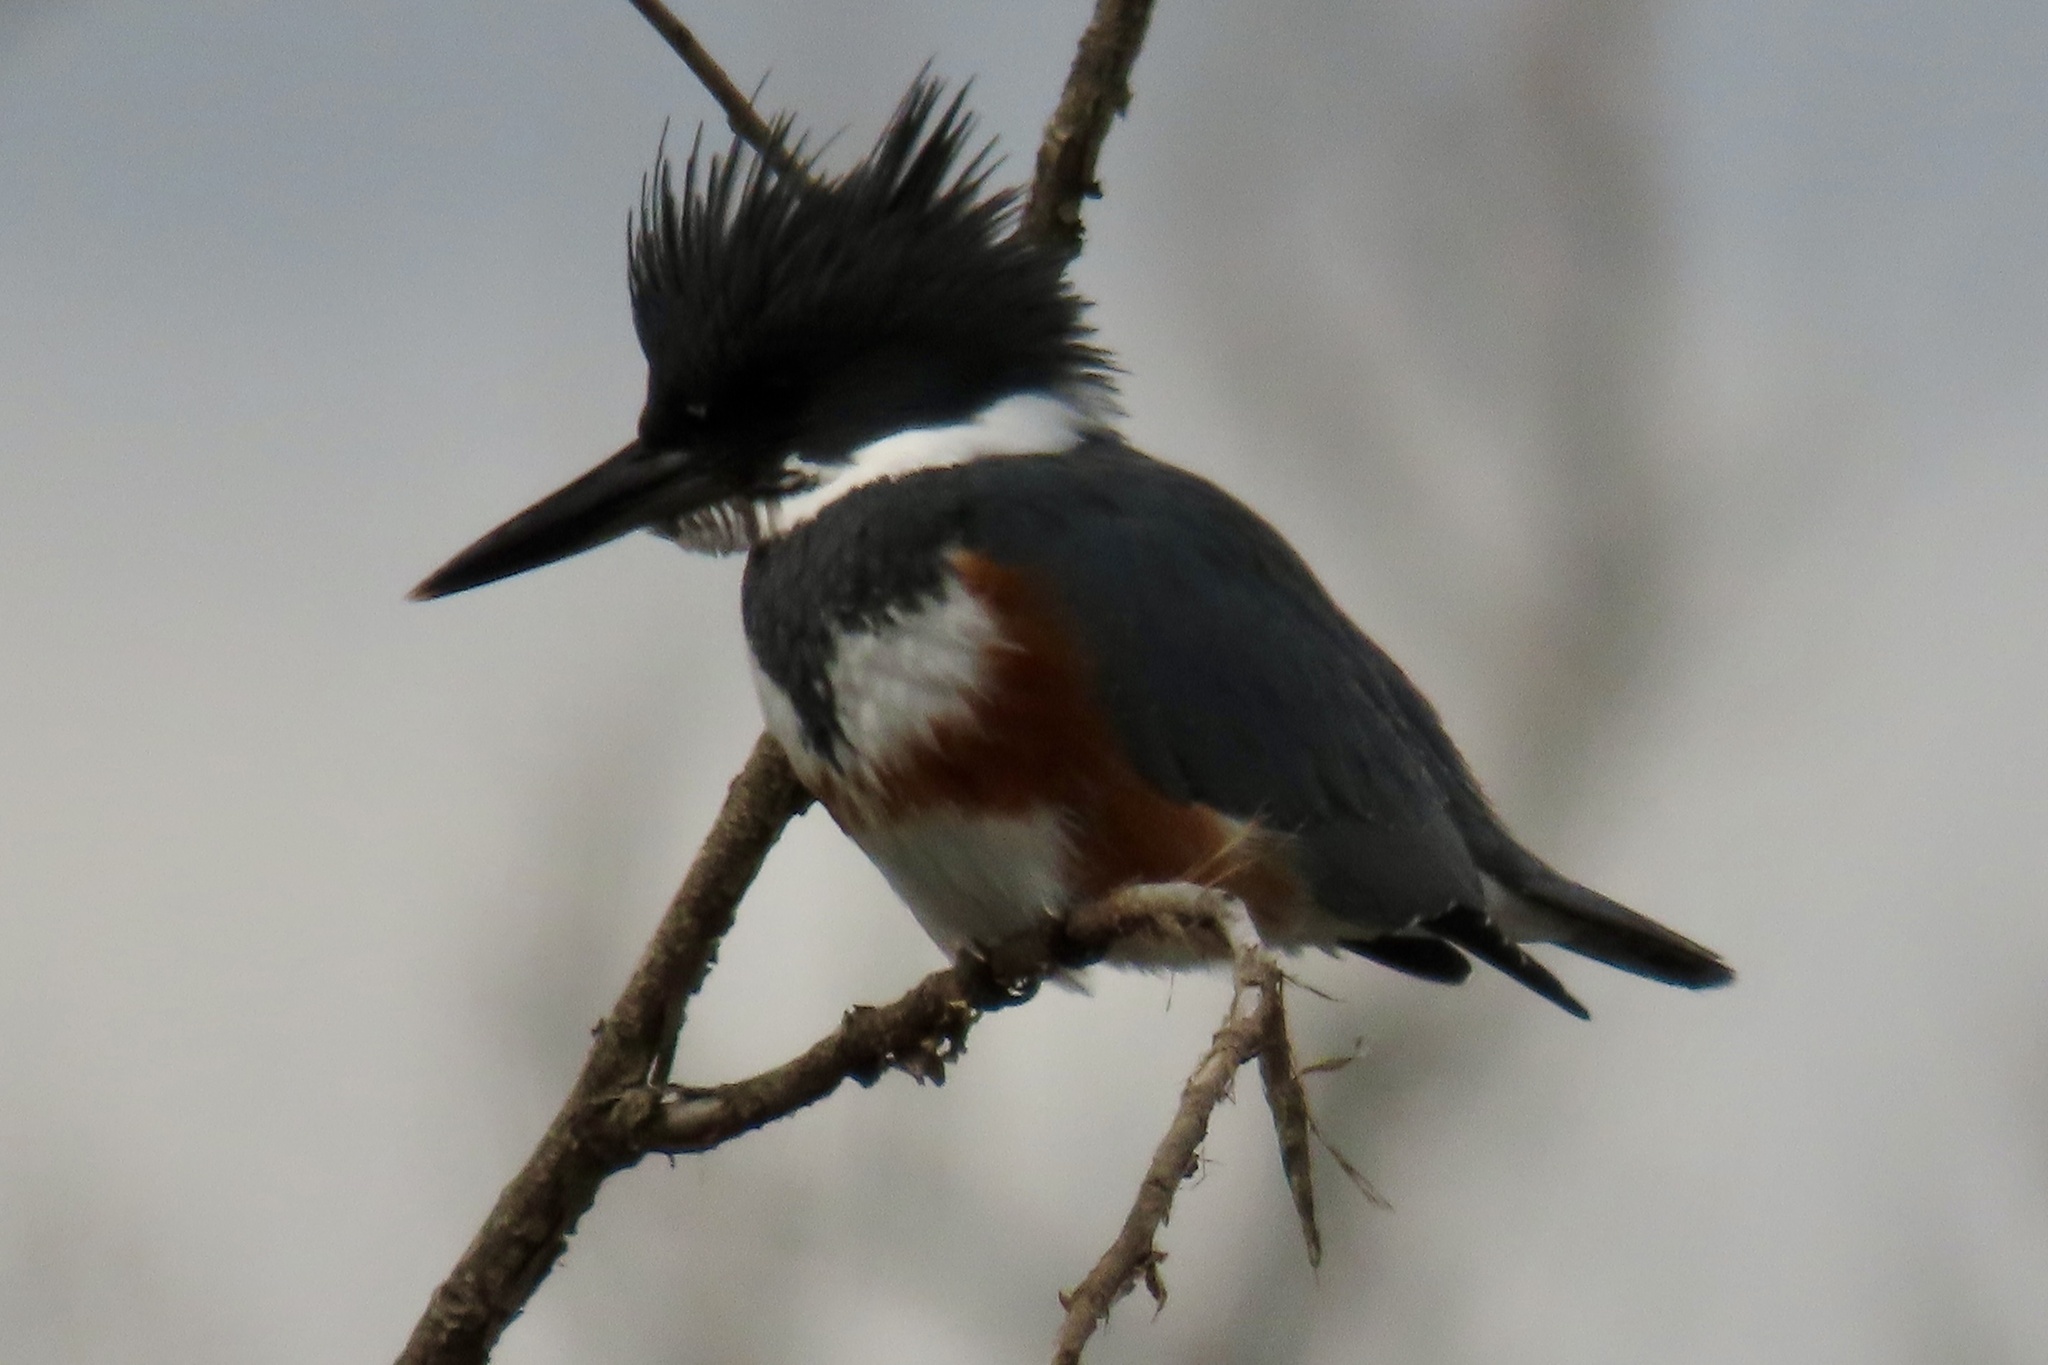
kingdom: Animalia
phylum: Chordata
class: Aves
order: Coraciiformes
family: Alcedinidae
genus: Megaceryle
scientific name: Megaceryle alcyon
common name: Belted kingfisher
